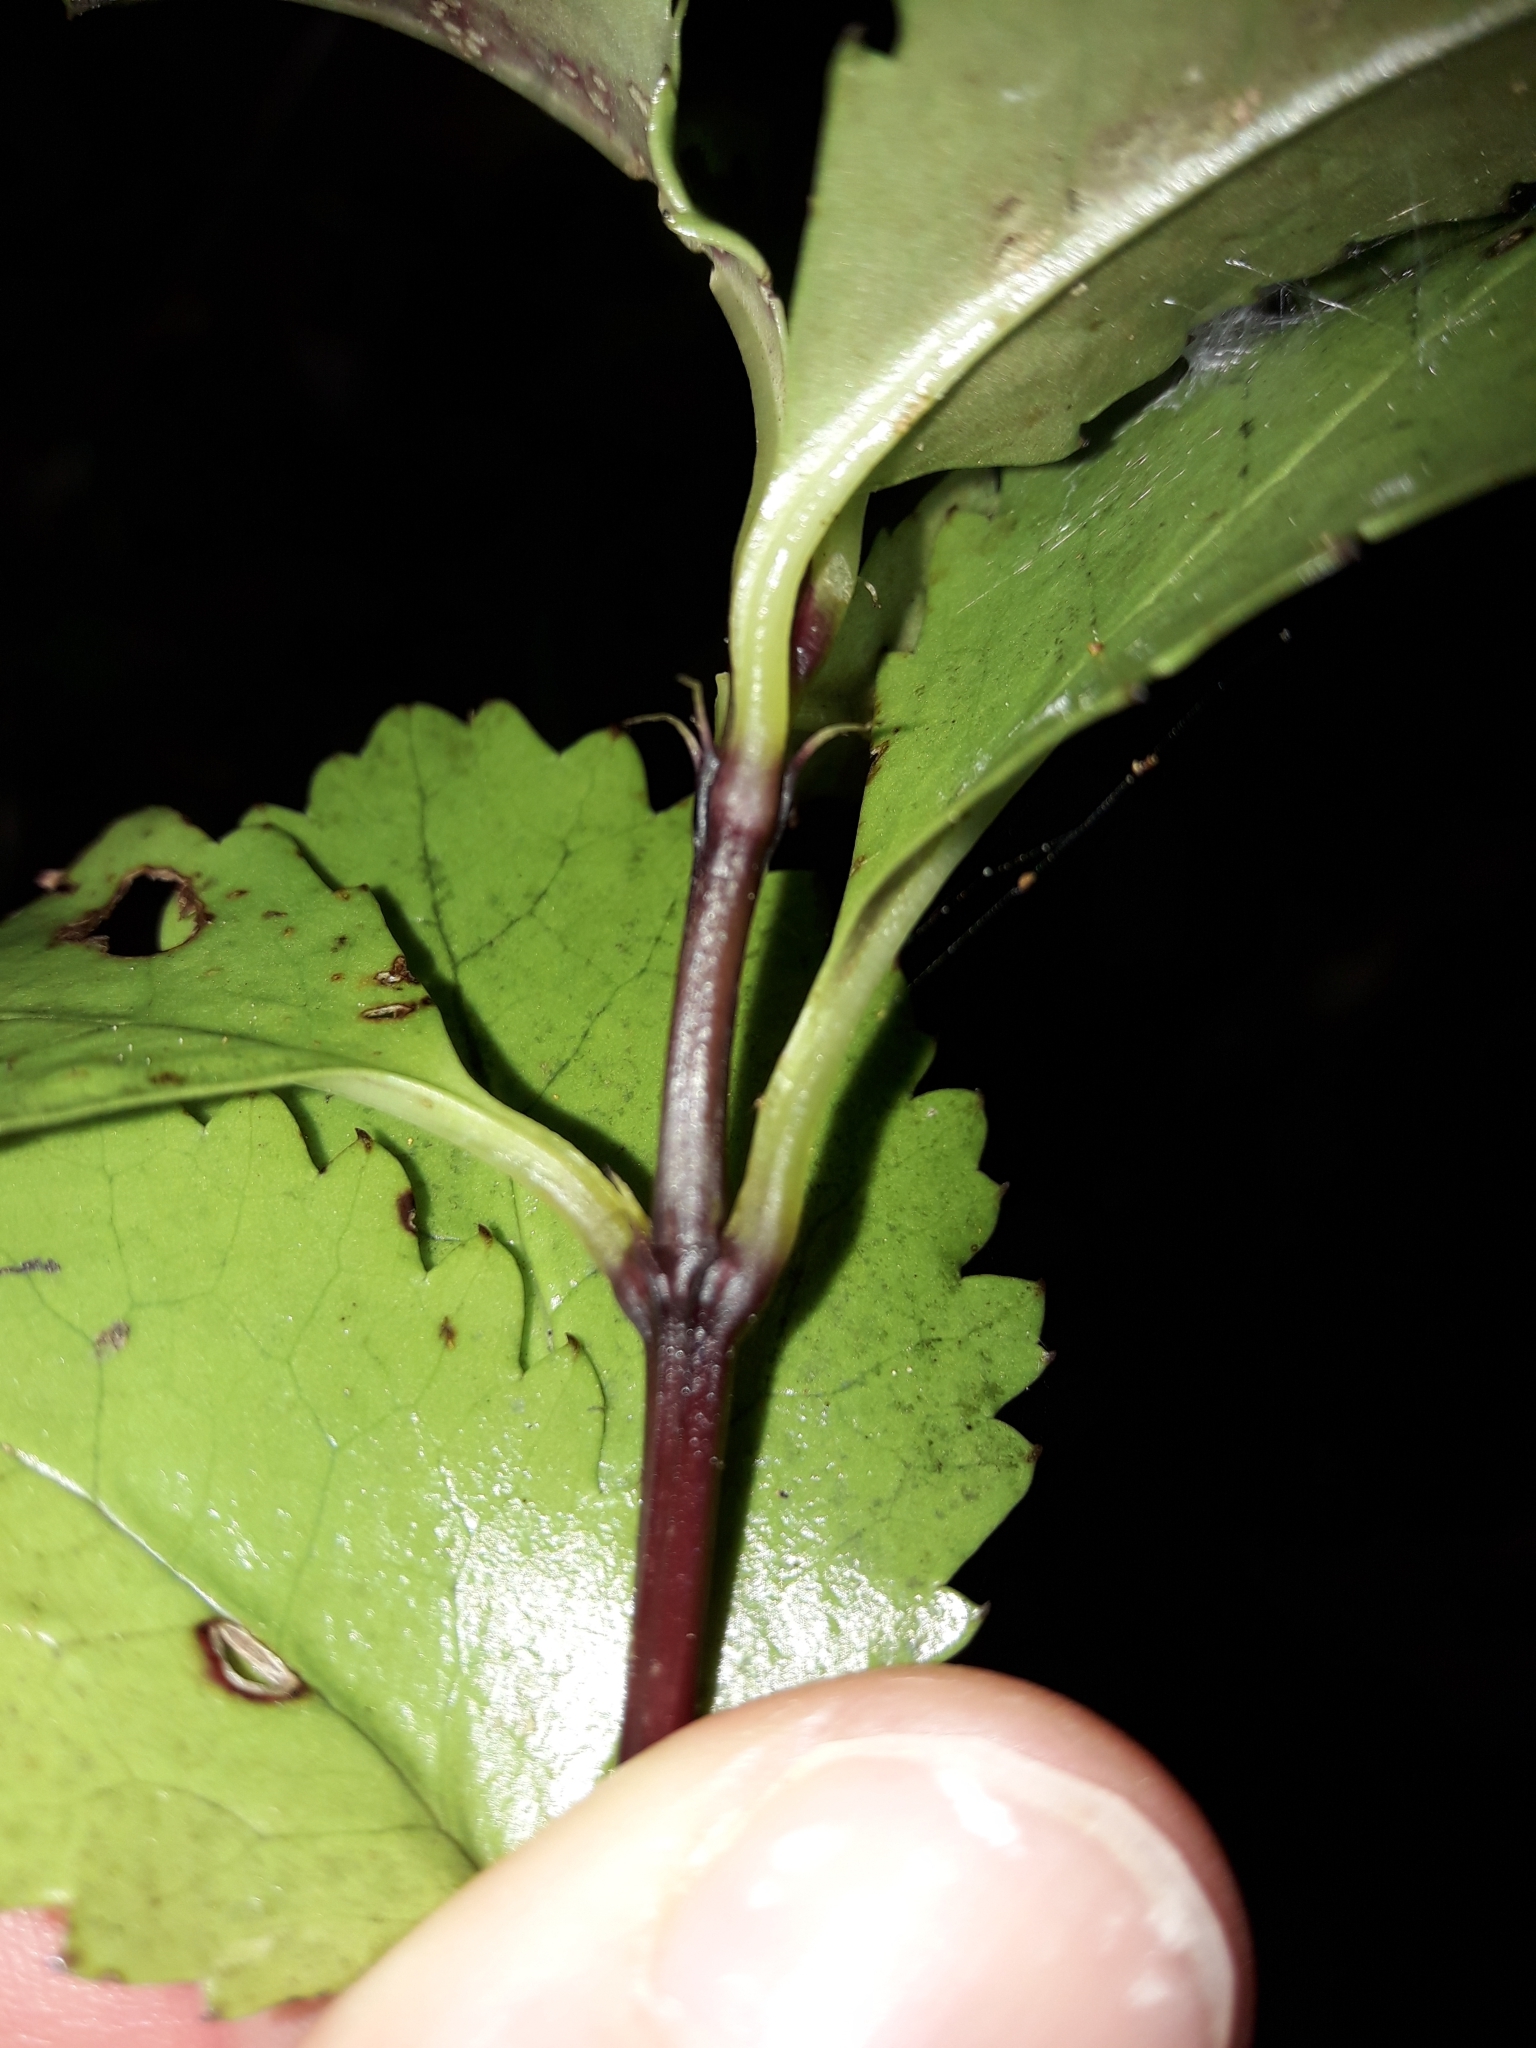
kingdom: Plantae
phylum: Tracheophyta
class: Magnoliopsida
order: Chloranthales
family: Chloranthaceae
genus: Ascarina
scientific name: Ascarina lucida
